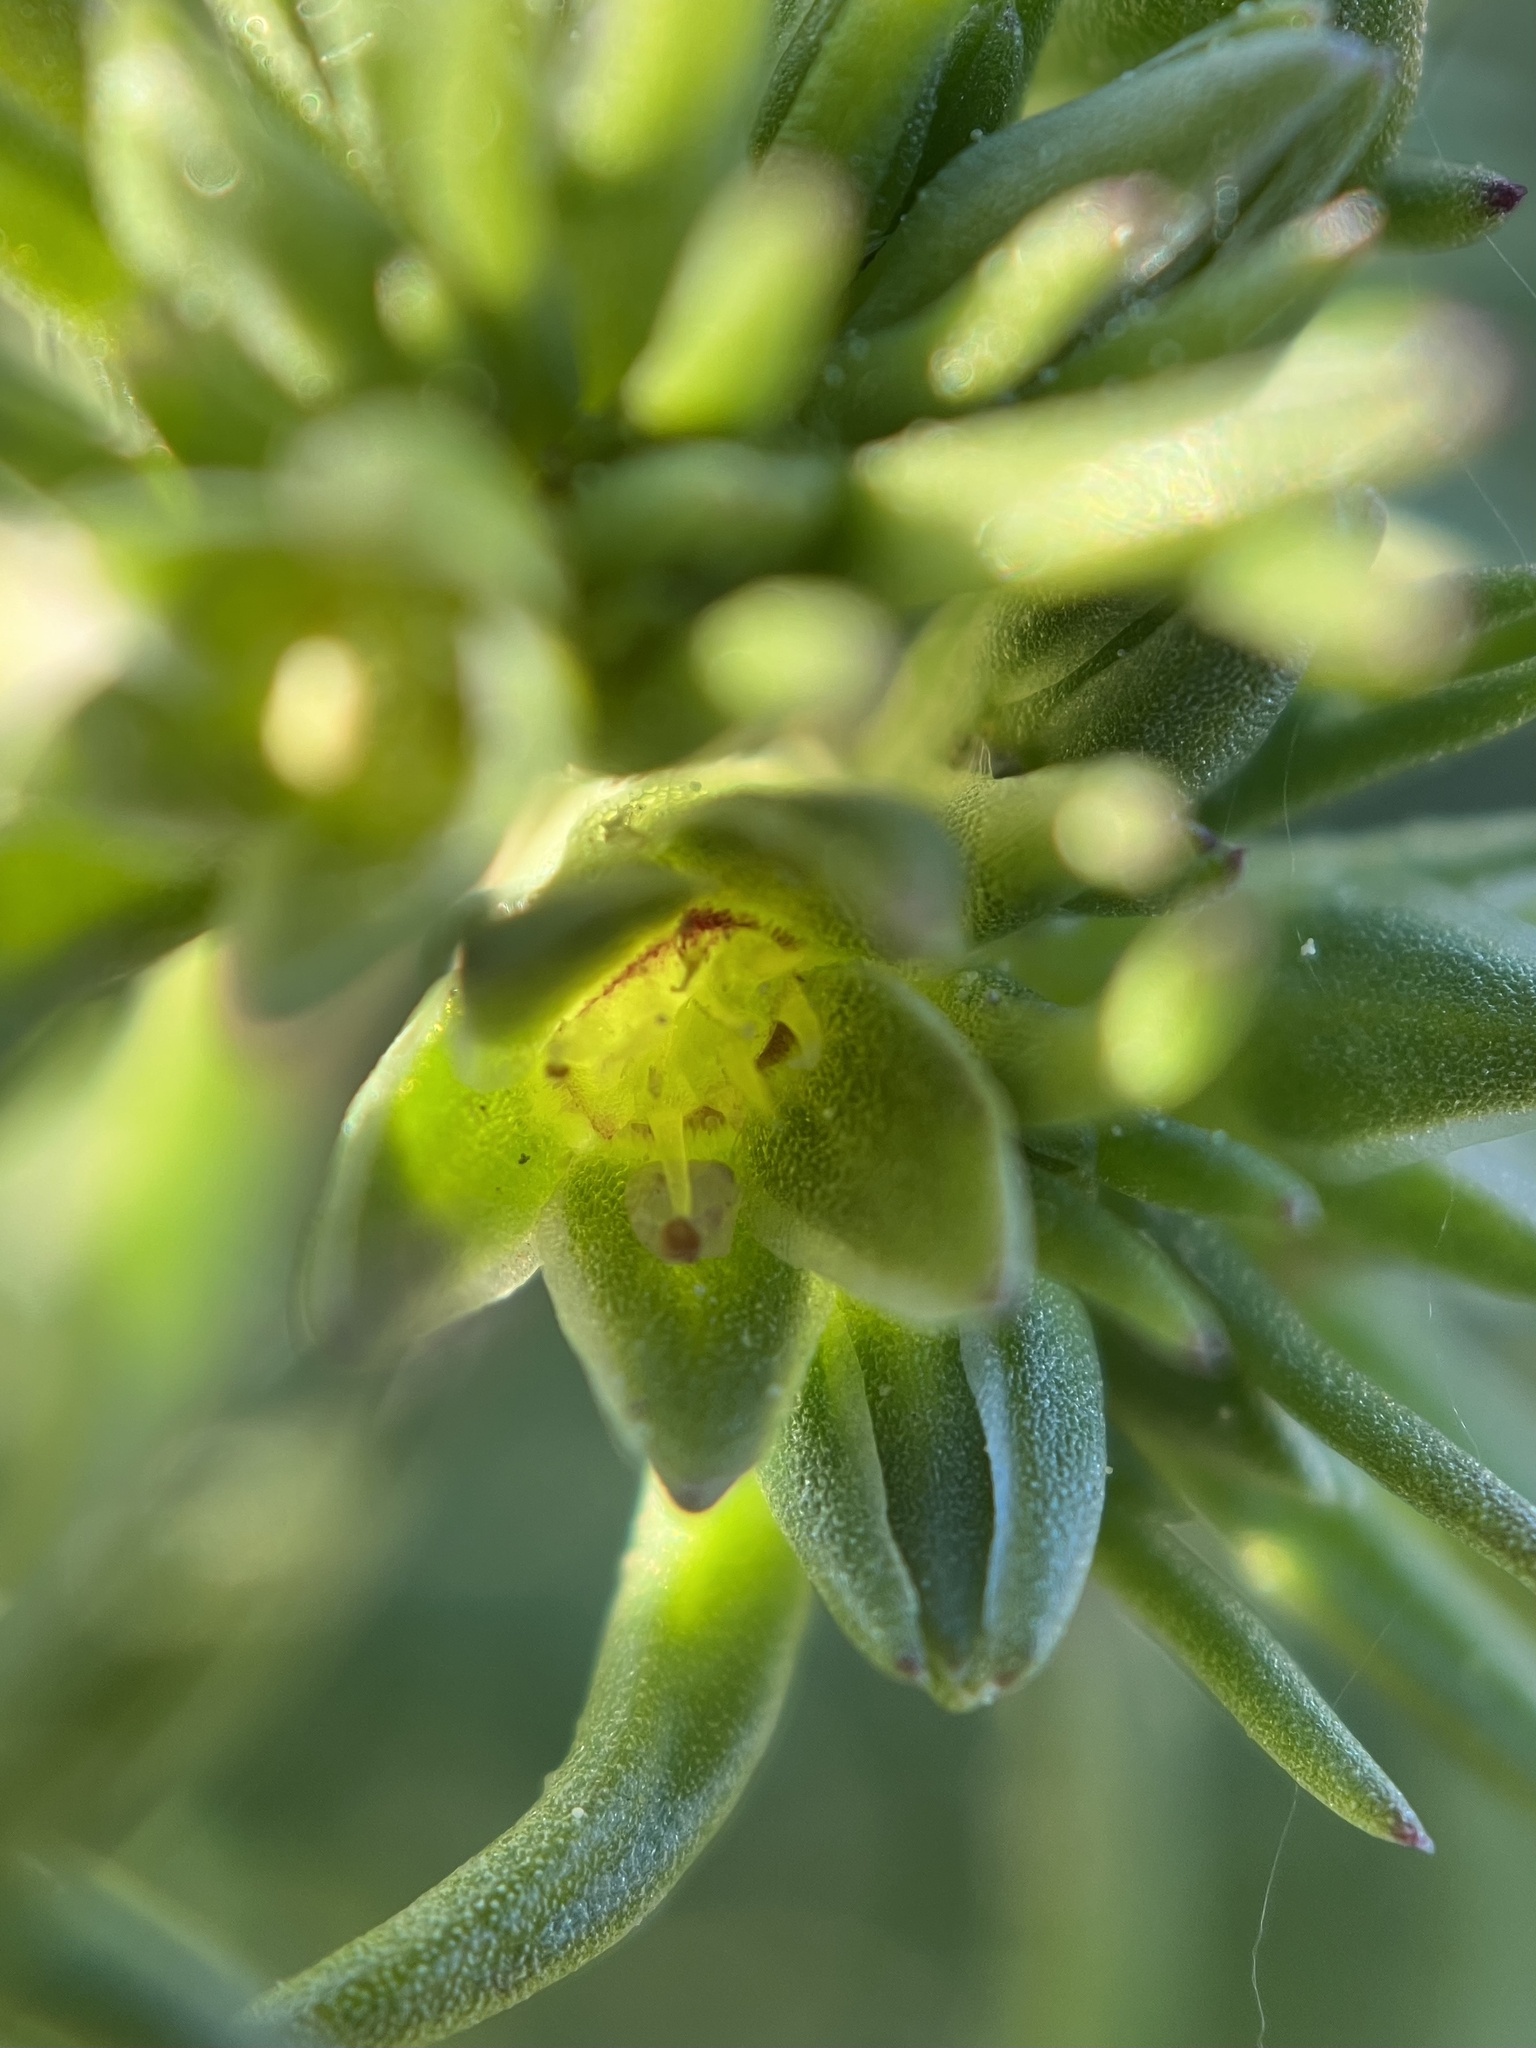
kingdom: Plantae
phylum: Tracheophyta
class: Magnoliopsida
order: Caryophyllales
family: Caryophyllaceae
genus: Scleranthus
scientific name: Scleranthus annuus
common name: Annual knawel
